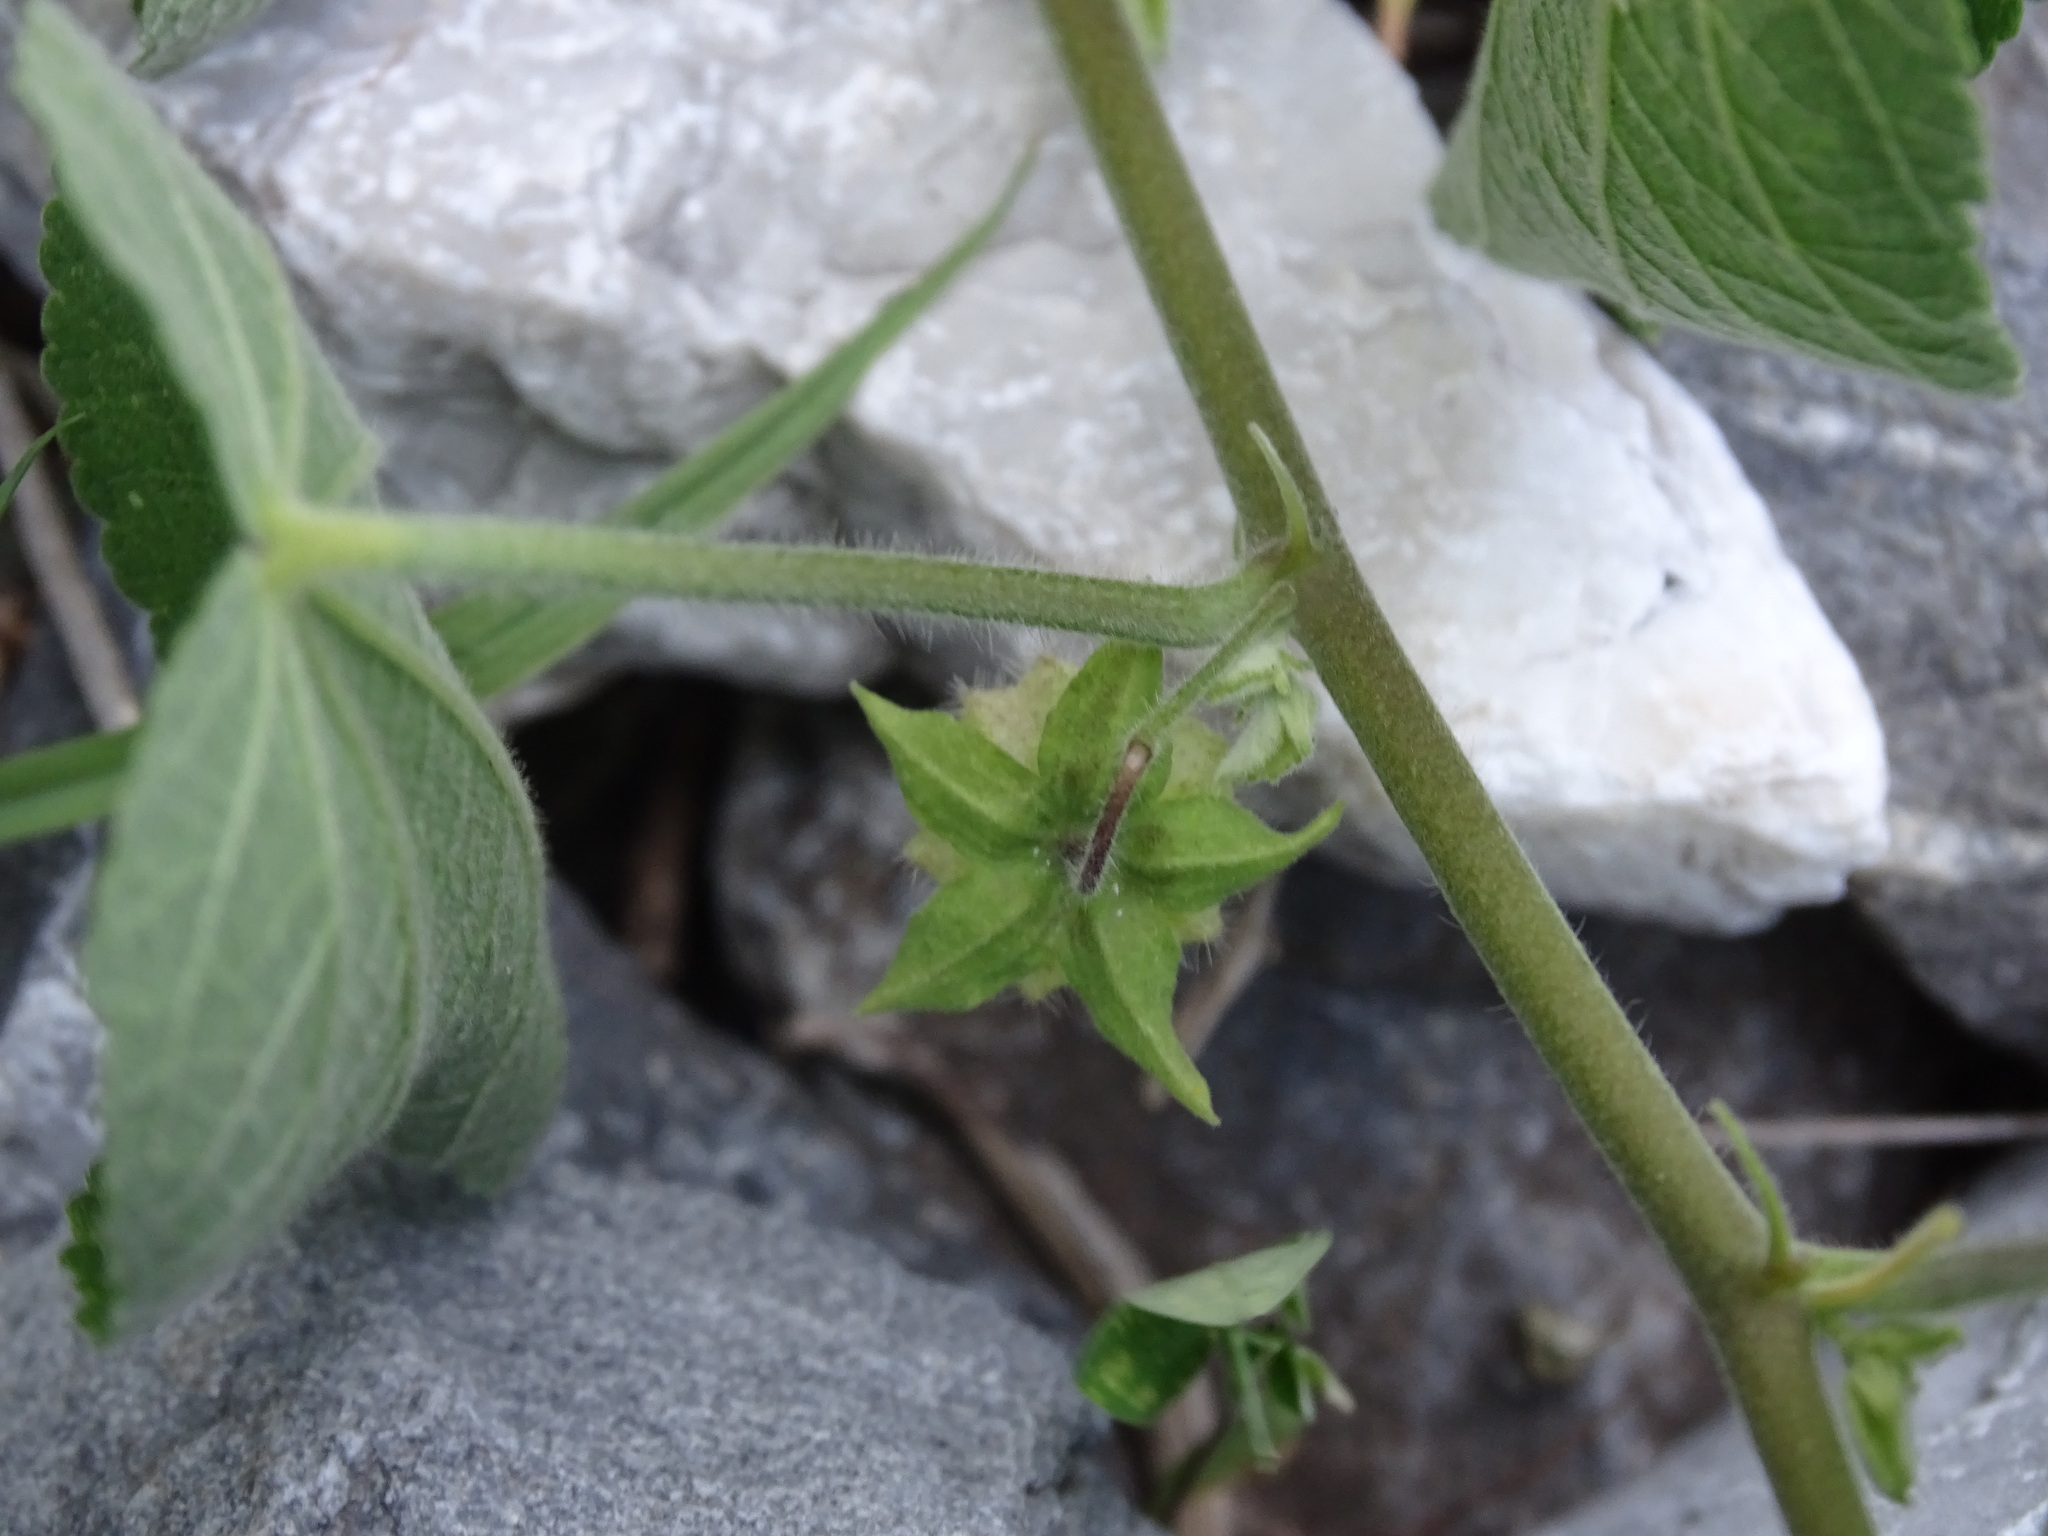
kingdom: Plantae
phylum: Tracheophyta
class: Magnoliopsida
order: Malvales
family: Malvaceae
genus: Herissantia
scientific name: Herissantia crispa
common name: Bladdermallow
